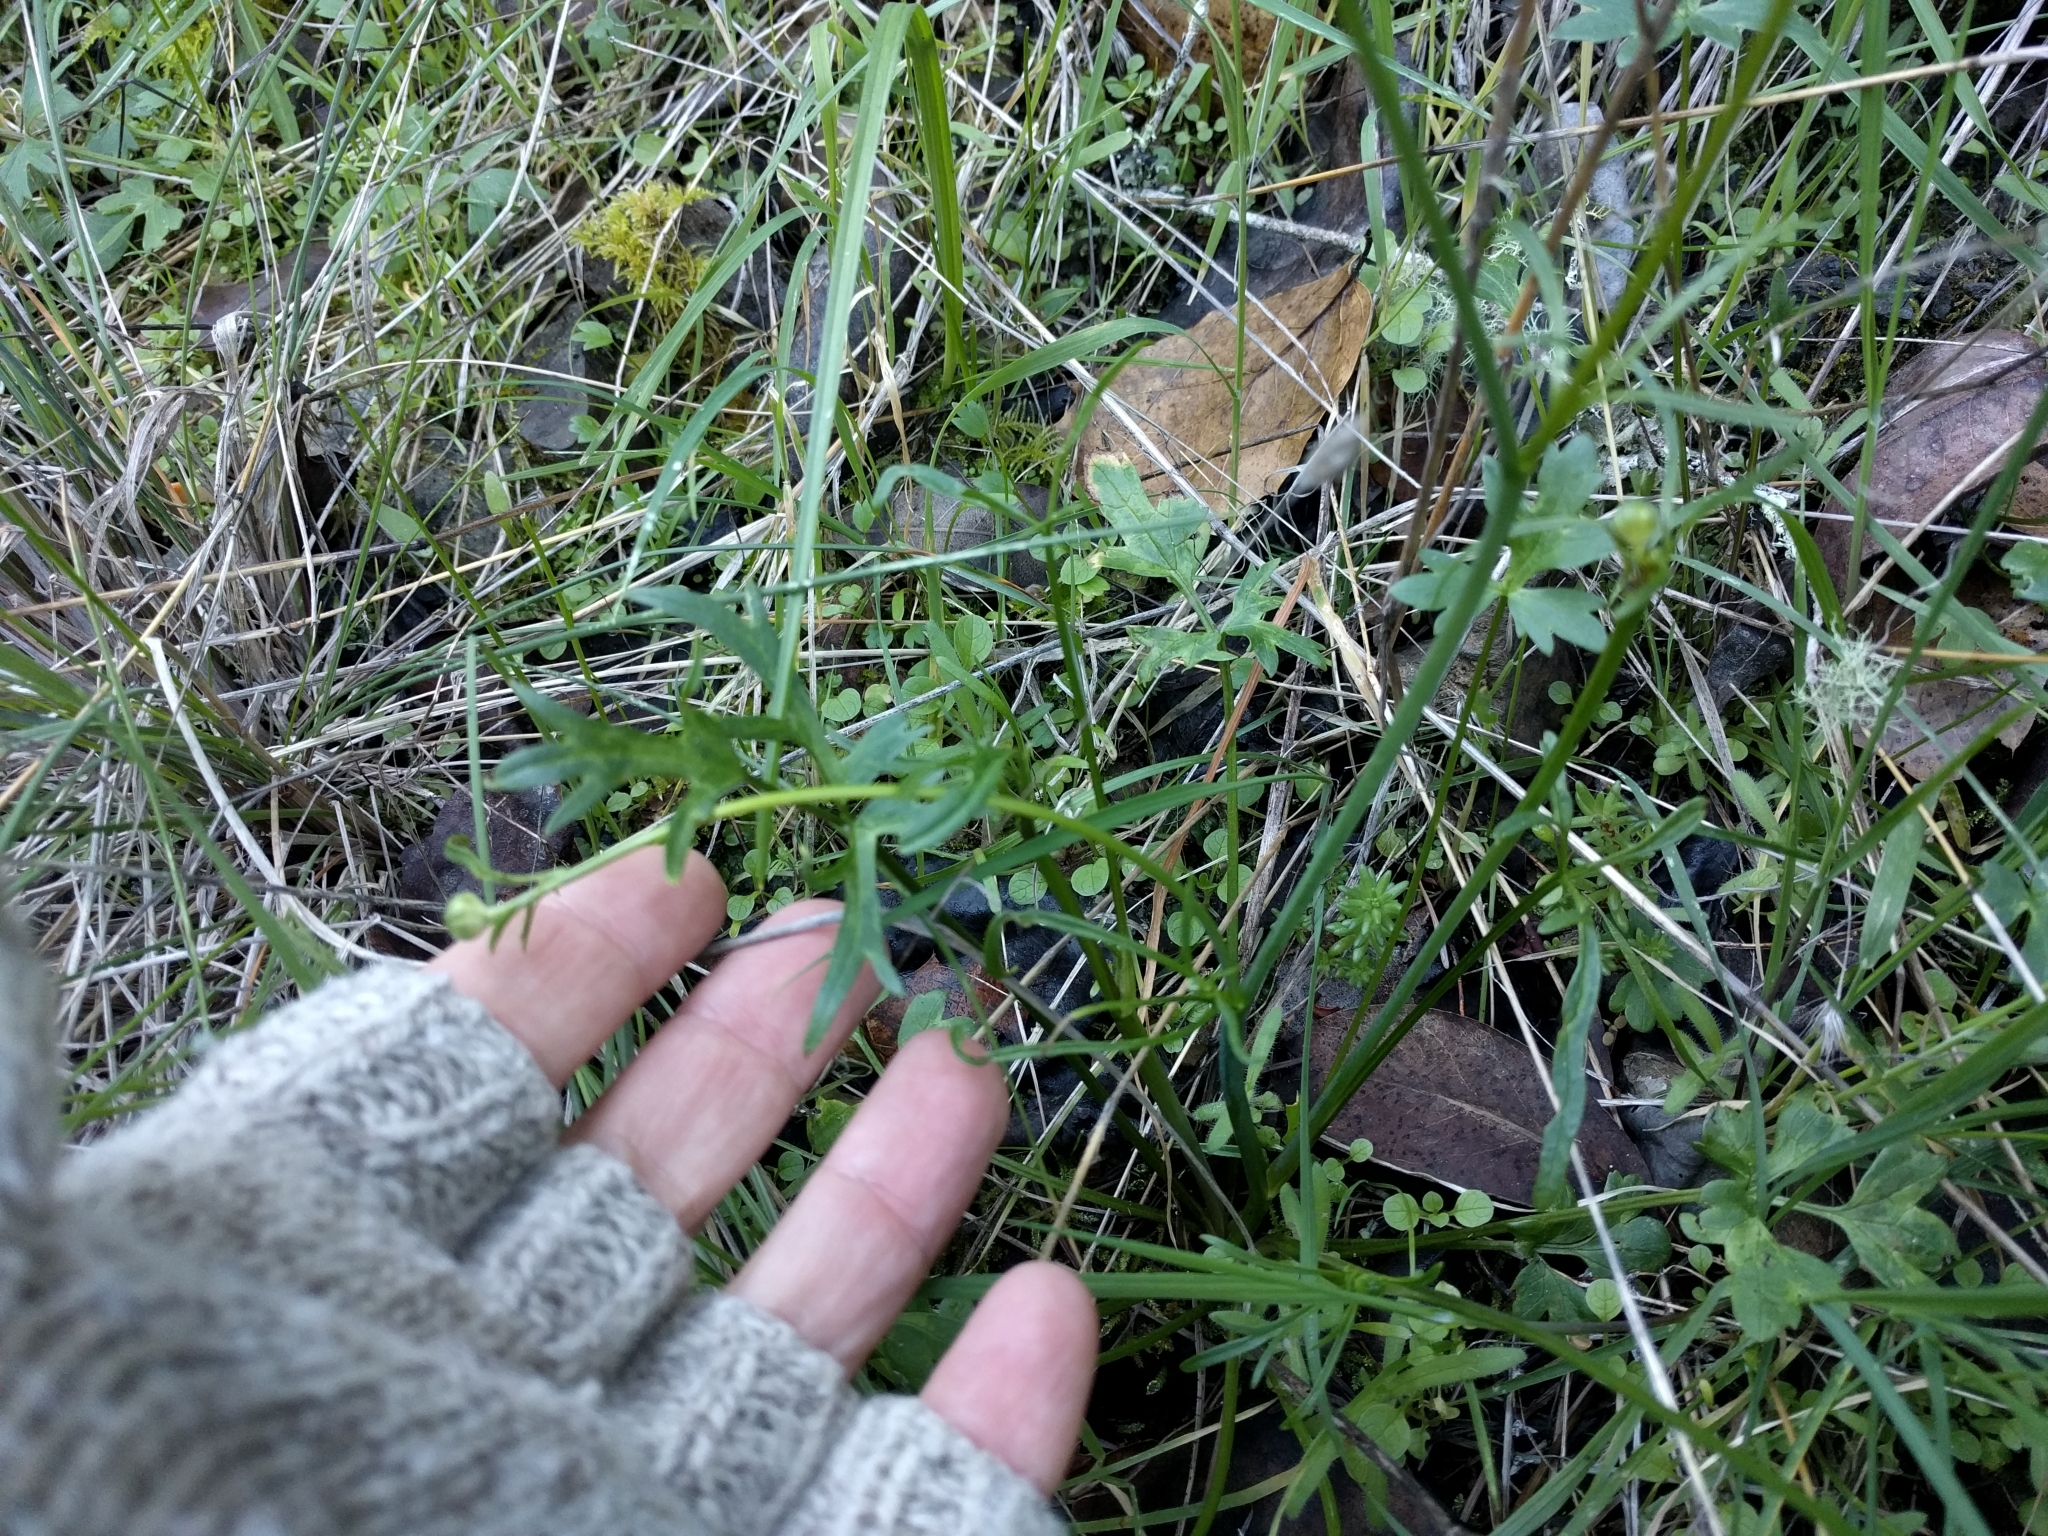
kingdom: Plantae
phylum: Tracheophyta
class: Magnoliopsida
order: Ranunculales
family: Ranunculaceae
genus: Ranunculus
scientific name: Ranunculus californicus
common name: California buttercup
